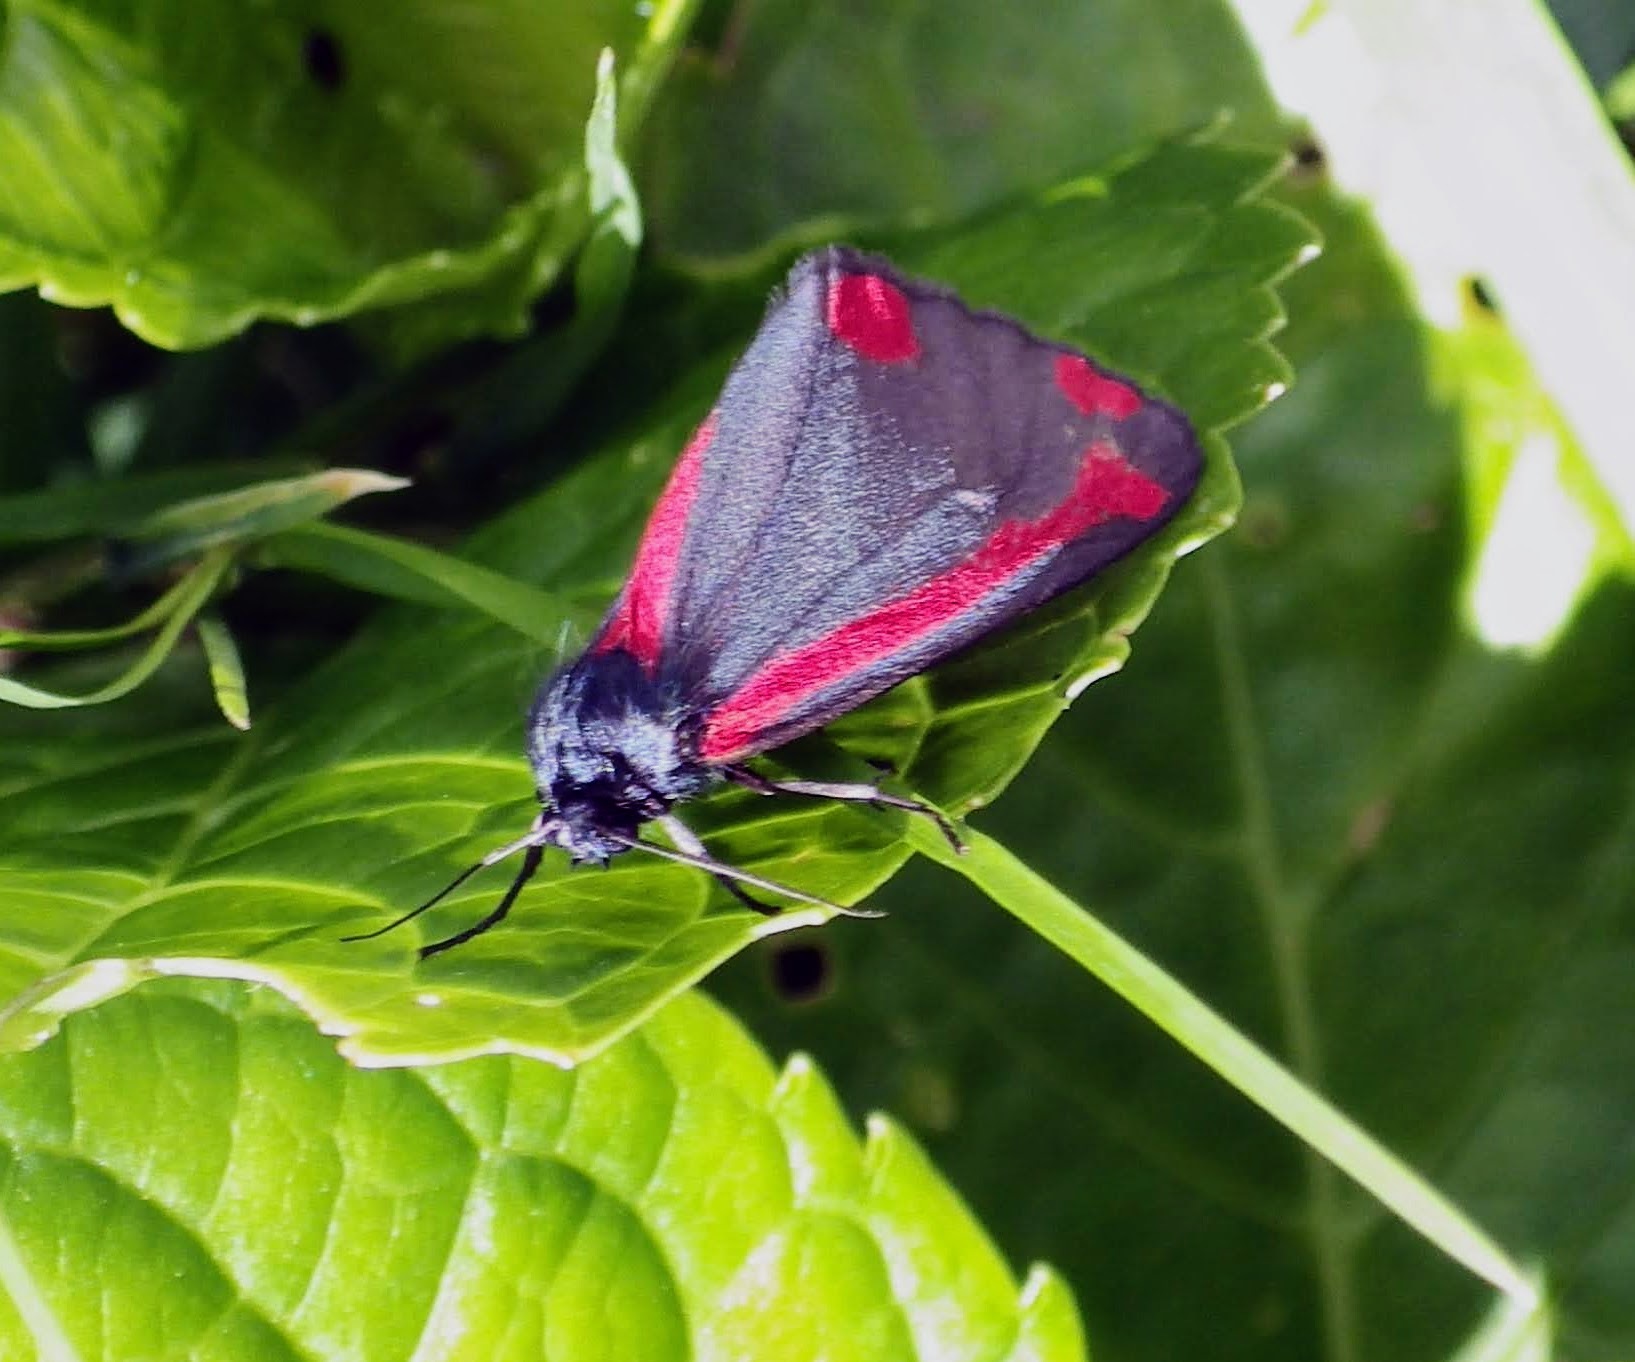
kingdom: Animalia
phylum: Arthropoda
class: Insecta
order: Lepidoptera
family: Erebidae
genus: Tyria
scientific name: Tyria jacobaeae
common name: Cinnabar
